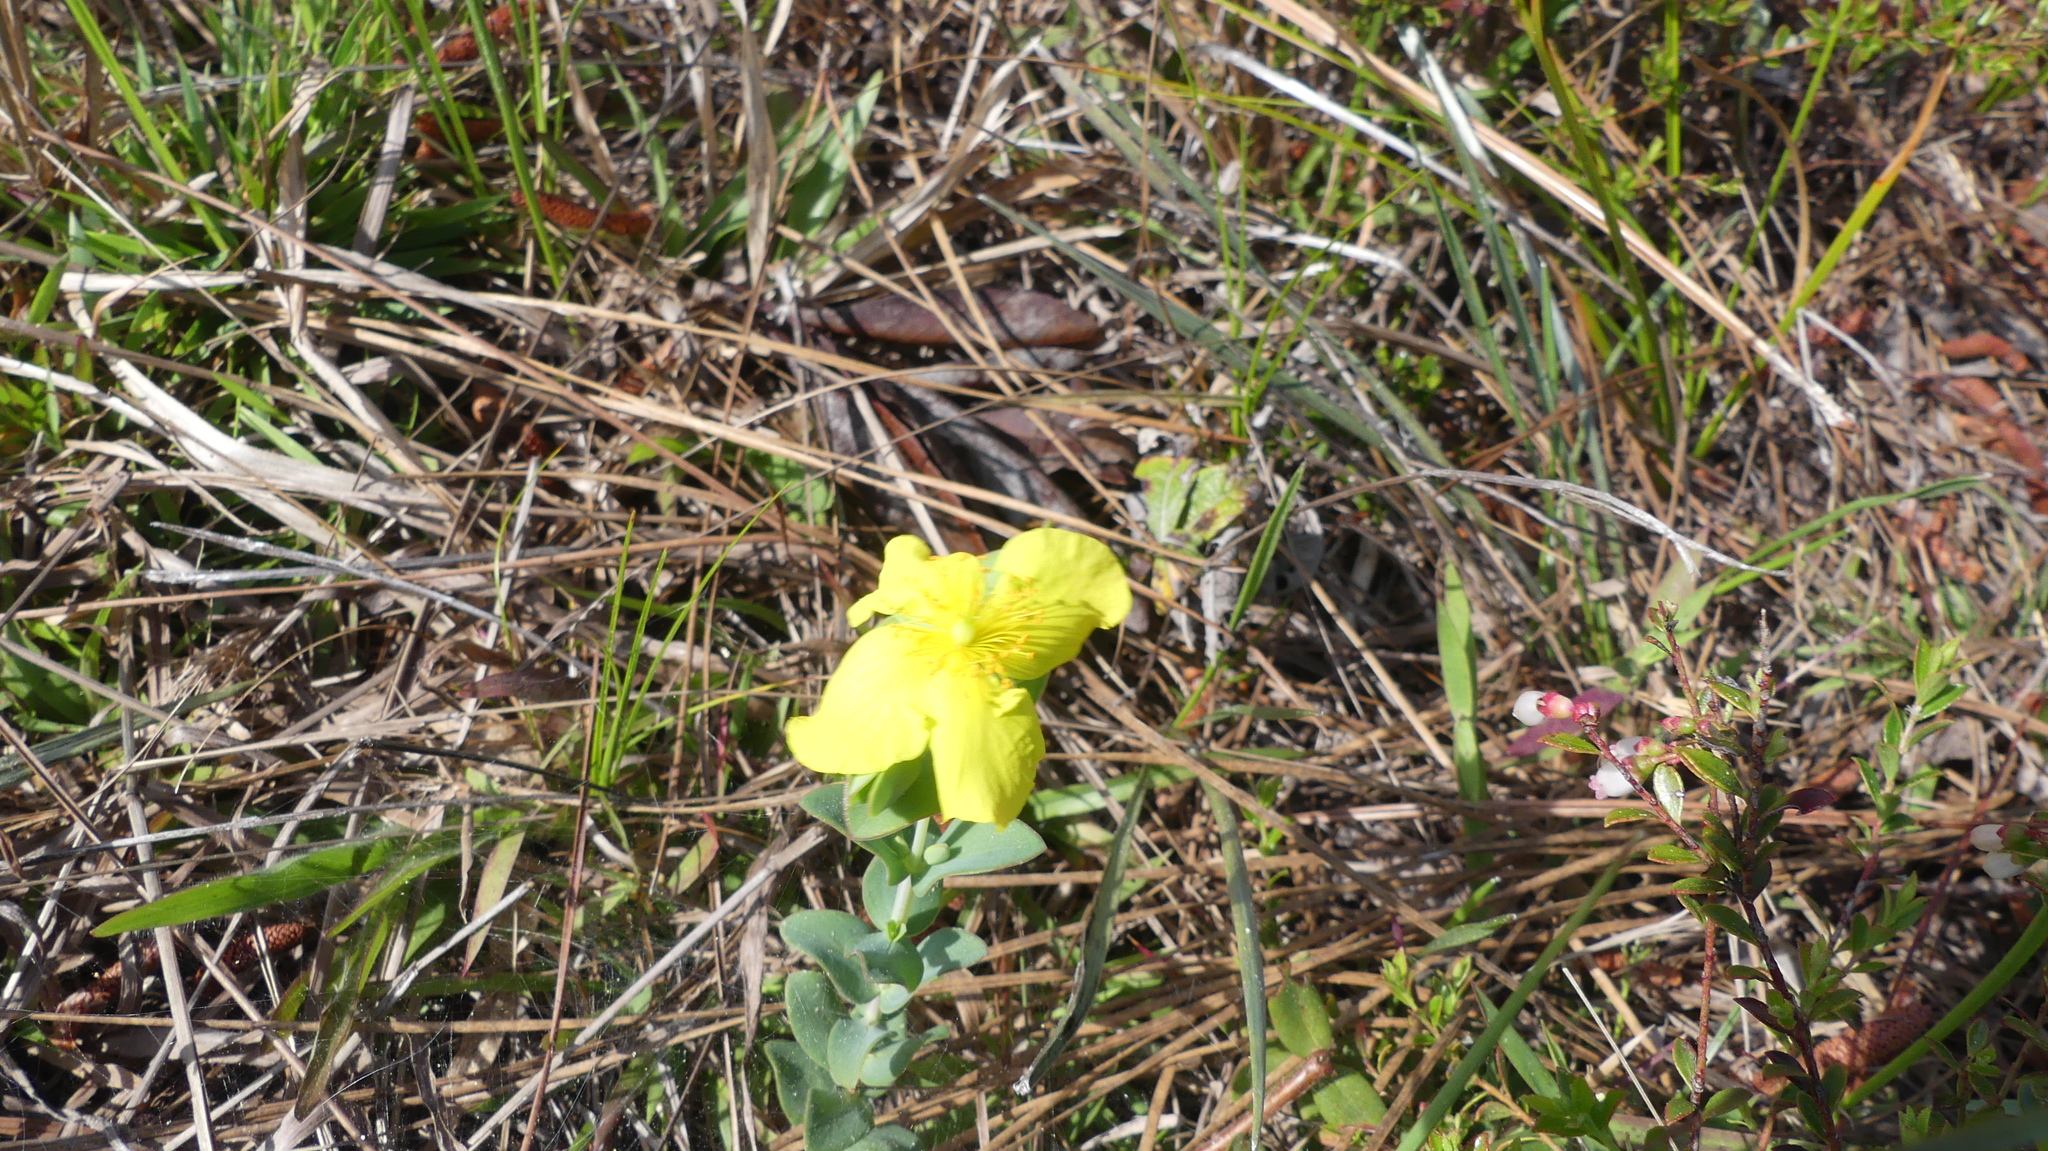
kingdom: Plantae
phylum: Tracheophyta
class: Magnoliopsida
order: Malpighiales
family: Hypericaceae
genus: Hypericum
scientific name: Hypericum tetrapetalum
